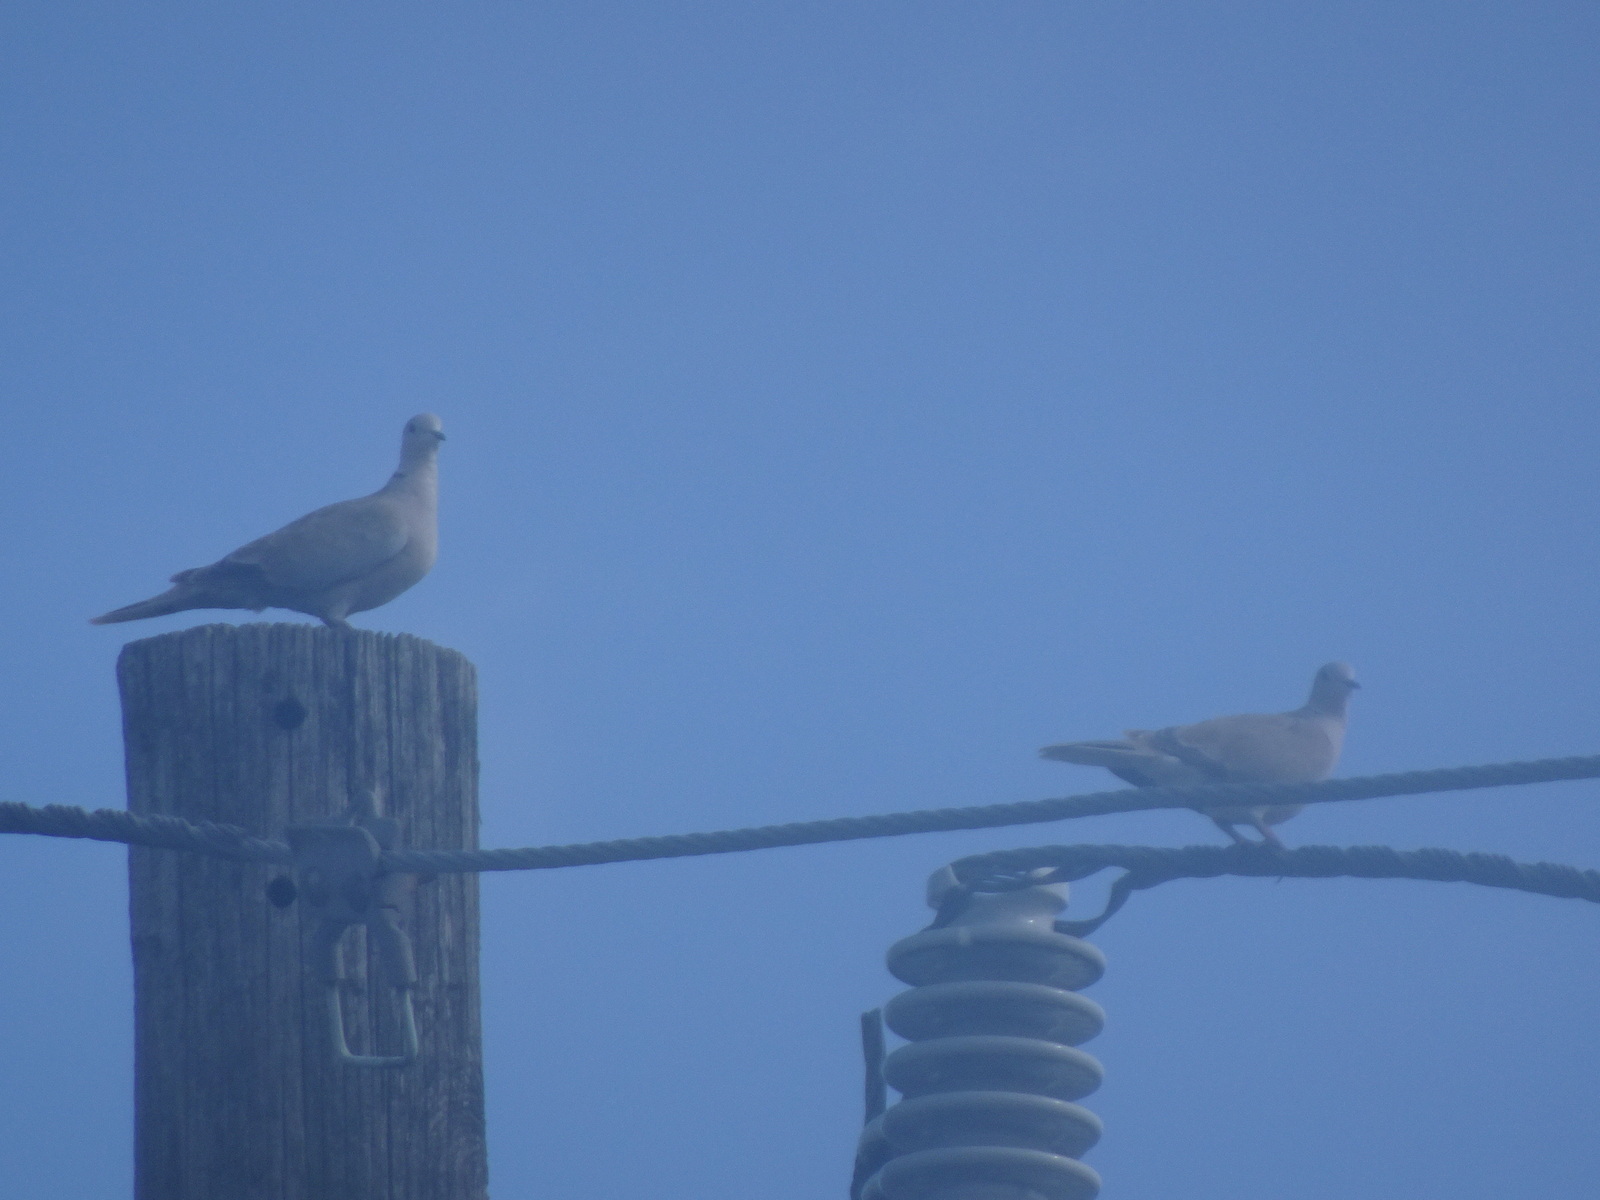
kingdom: Animalia
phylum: Chordata
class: Aves
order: Columbiformes
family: Columbidae
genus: Streptopelia
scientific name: Streptopelia decaocto
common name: Eurasian collared dove
